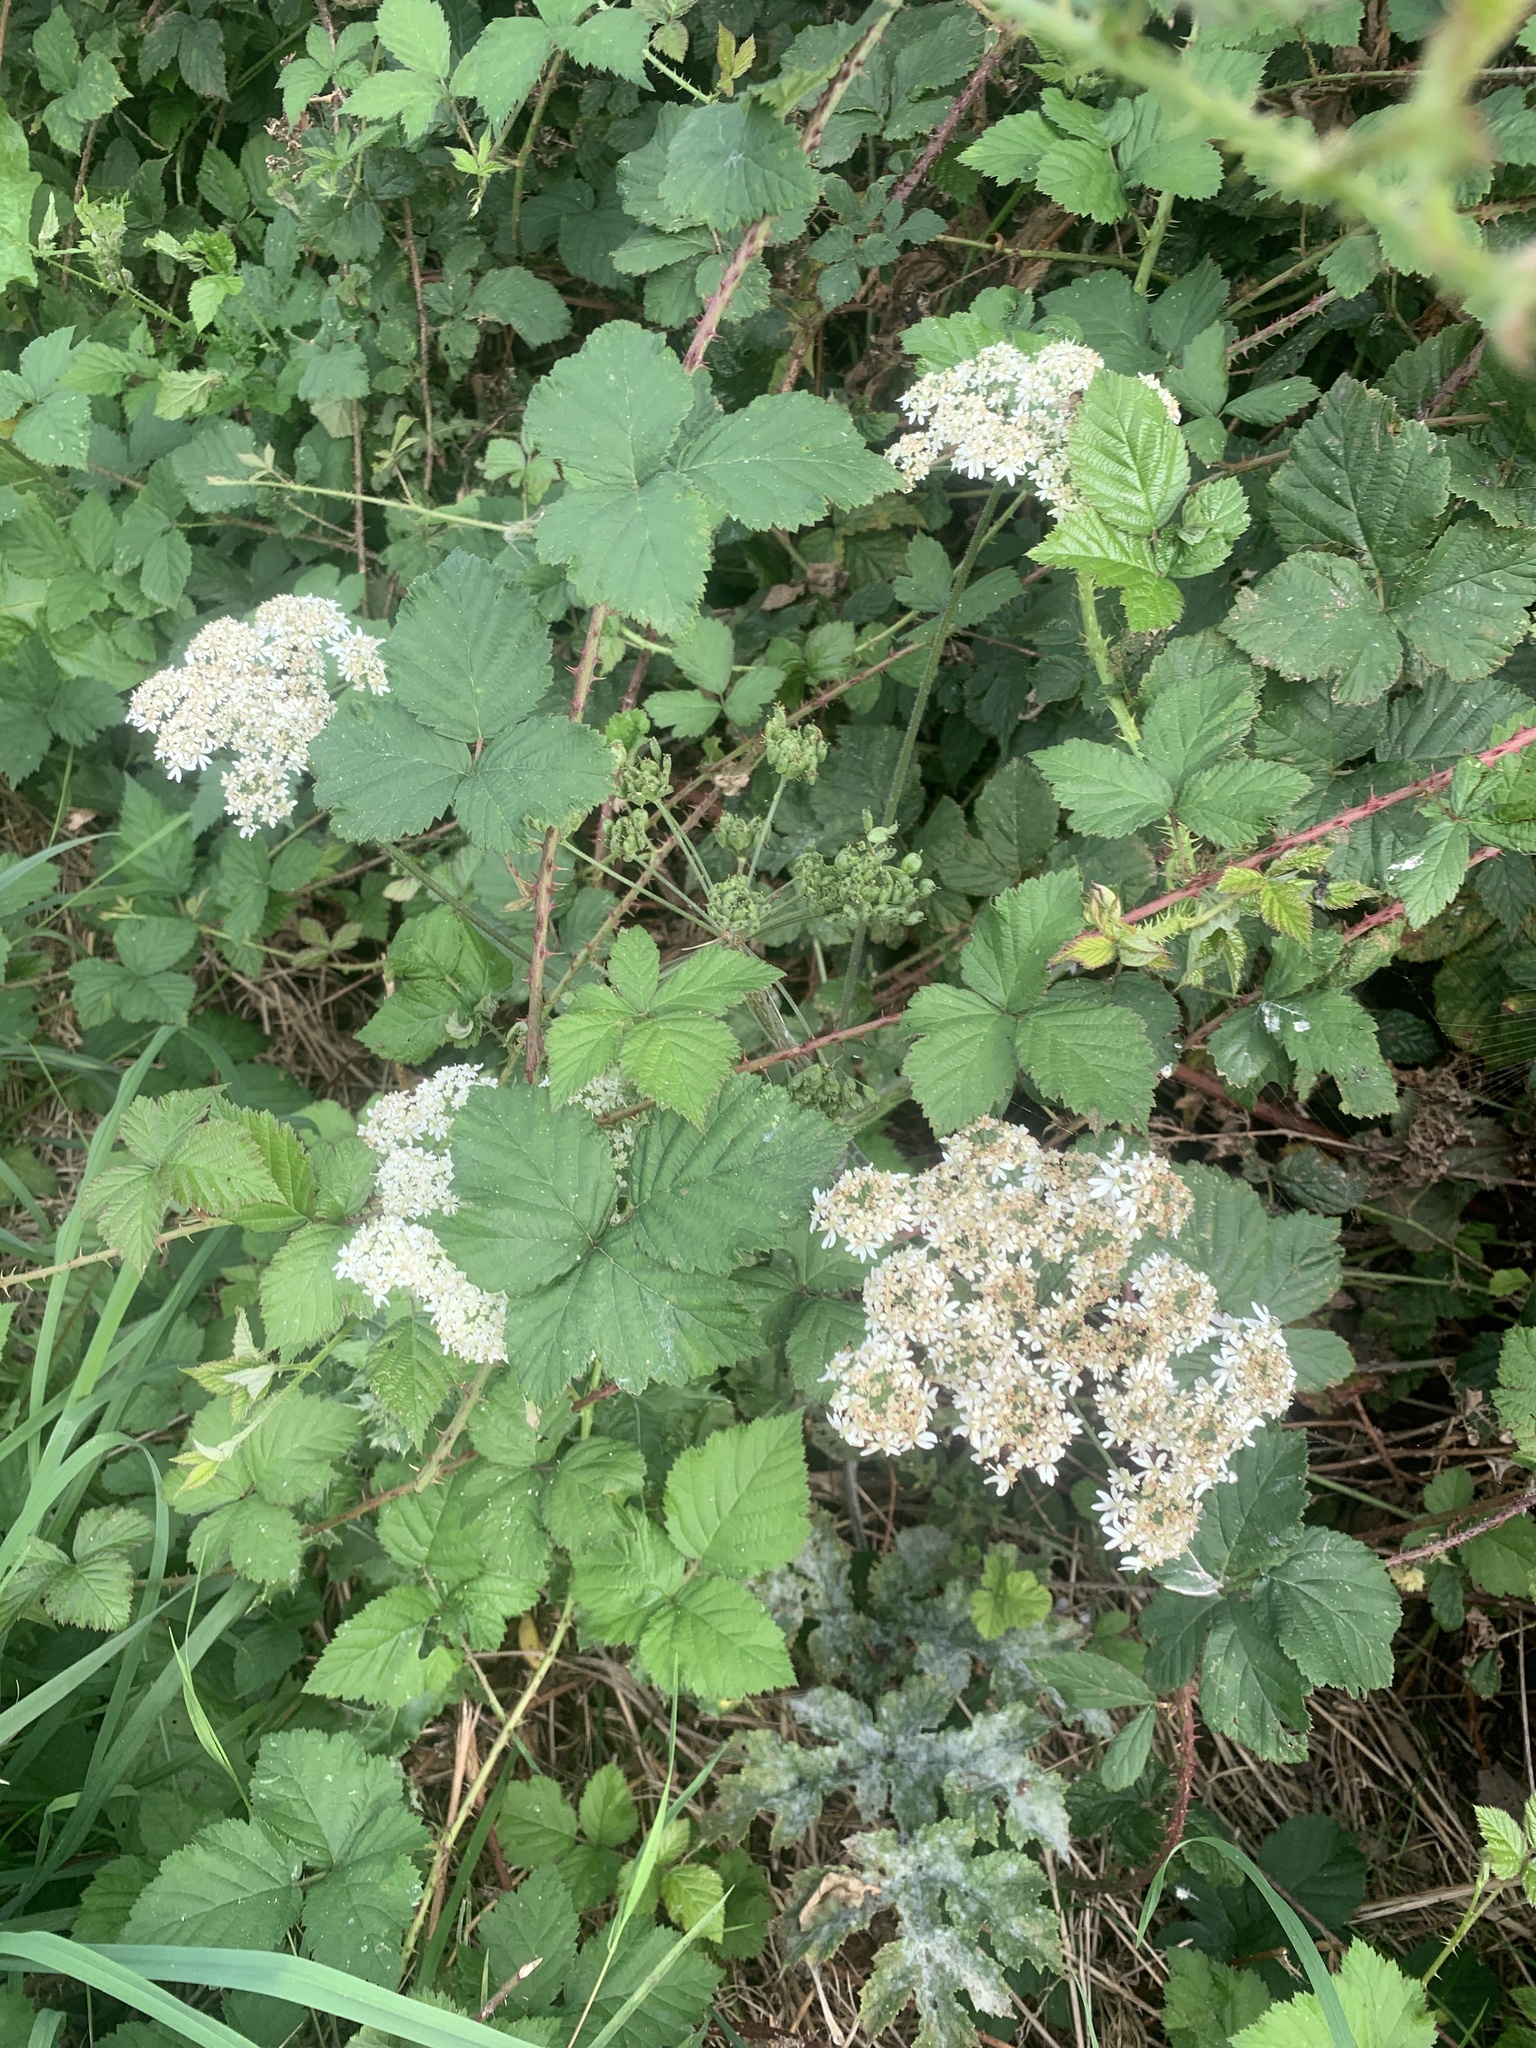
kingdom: Plantae
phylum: Tracheophyta
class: Magnoliopsida
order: Apiales
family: Apiaceae
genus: Heracleum
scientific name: Heracleum sphondylium
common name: Hogweed
